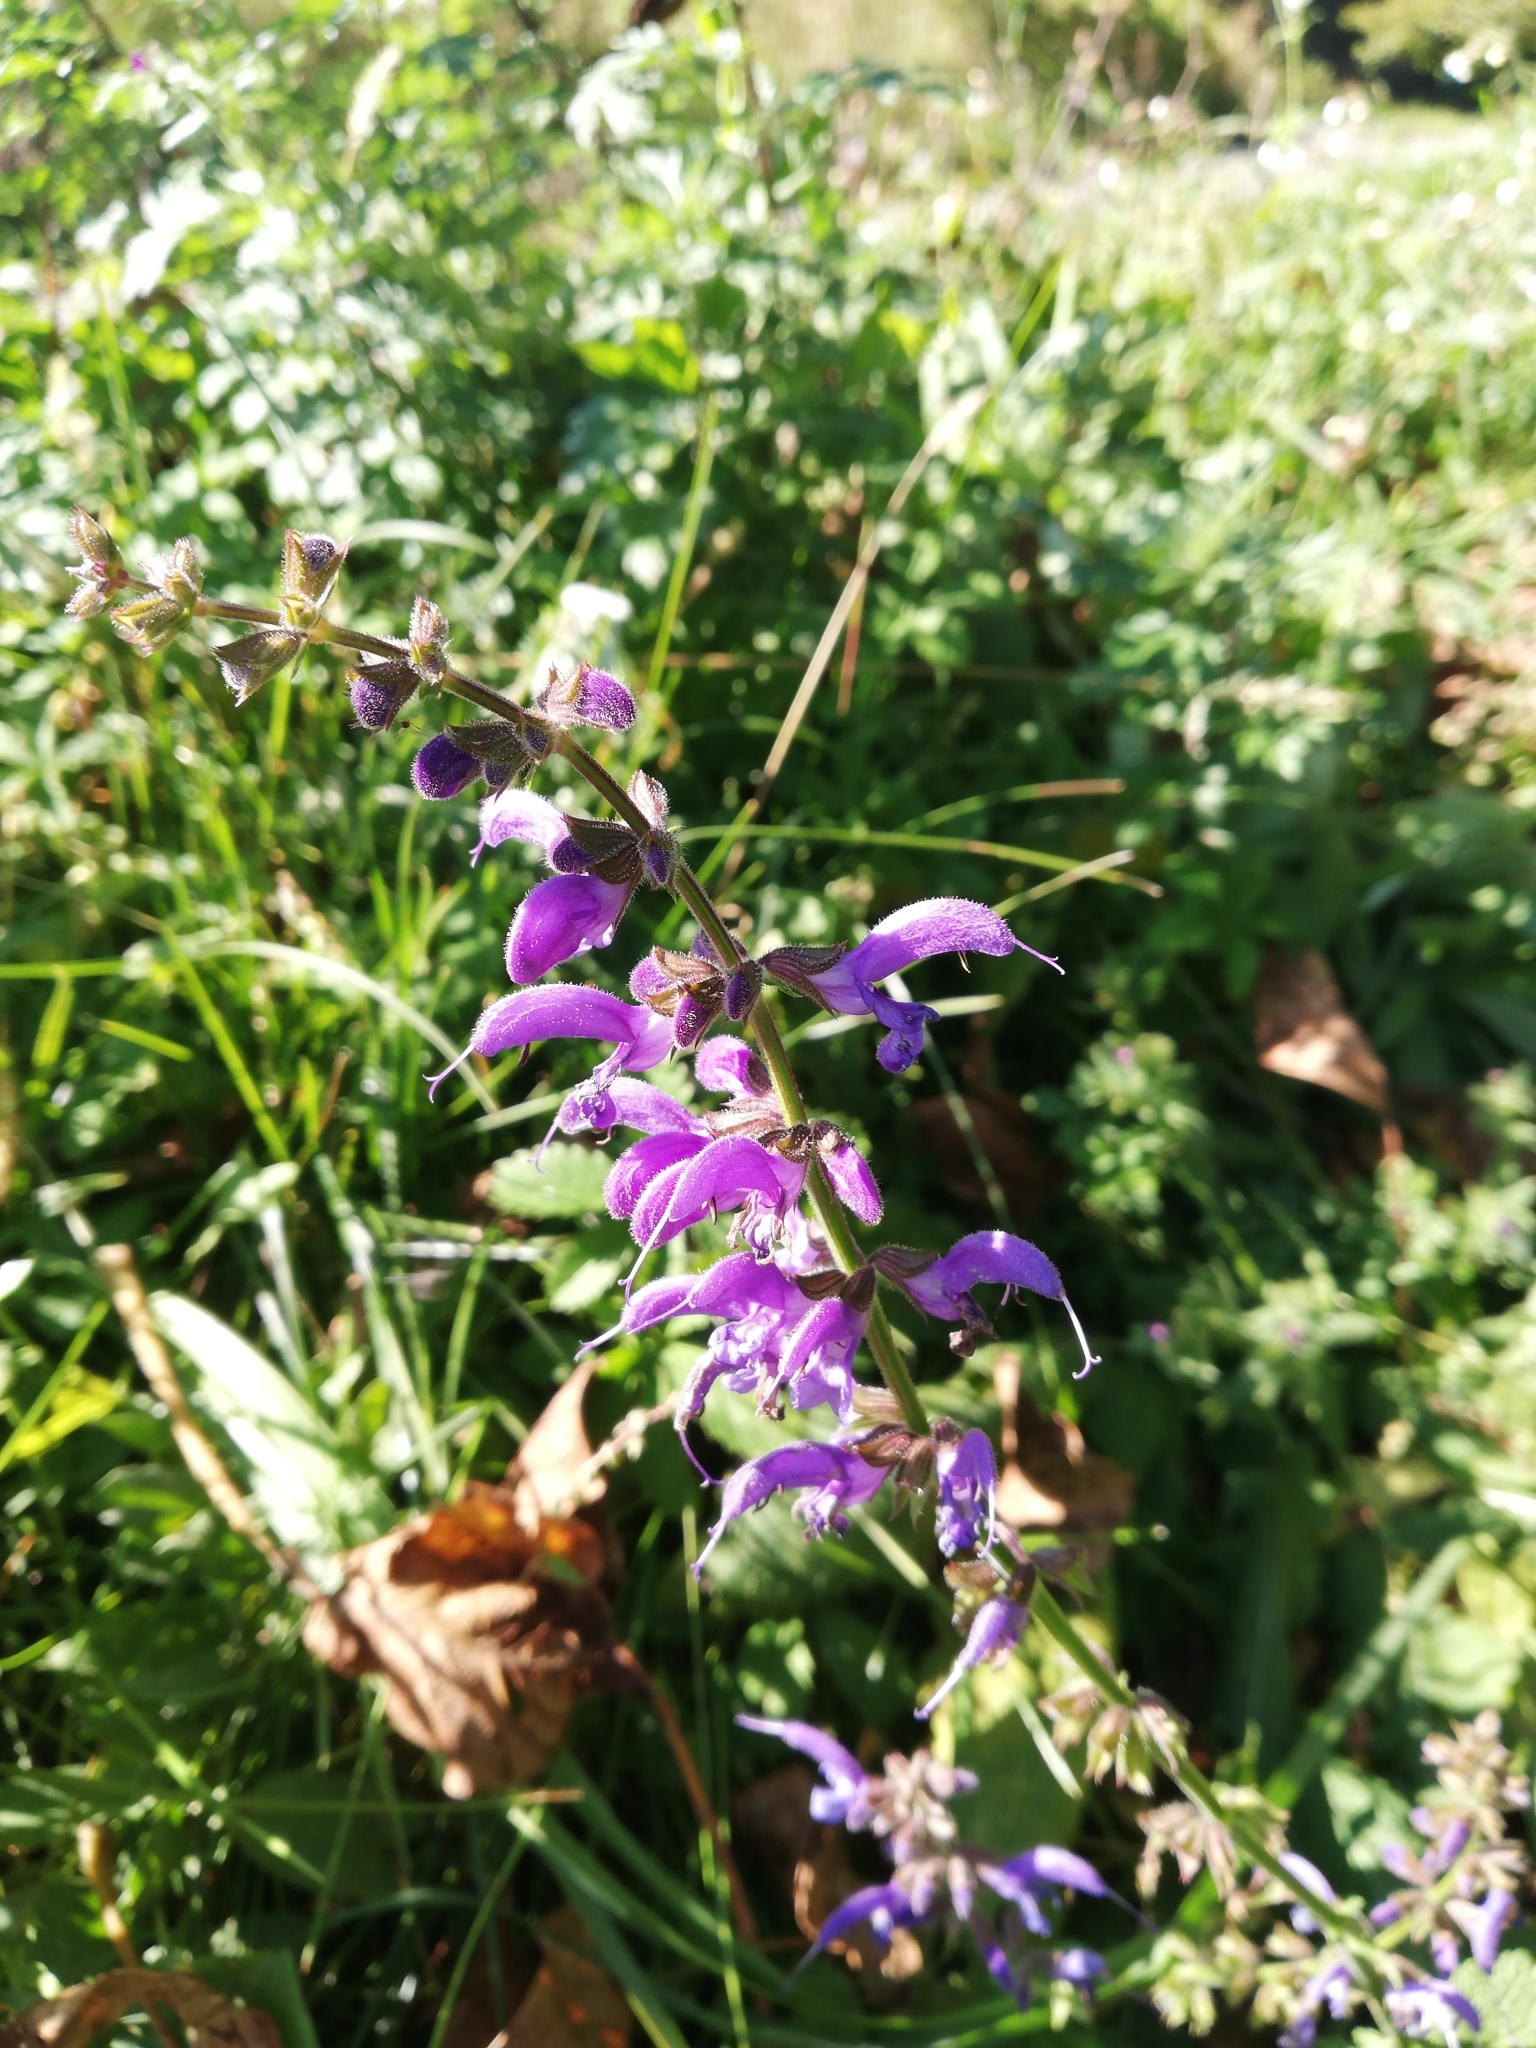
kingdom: Plantae
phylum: Tracheophyta
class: Magnoliopsida
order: Lamiales
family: Lamiaceae
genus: Salvia
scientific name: Salvia pratensis
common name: Meadow sage
